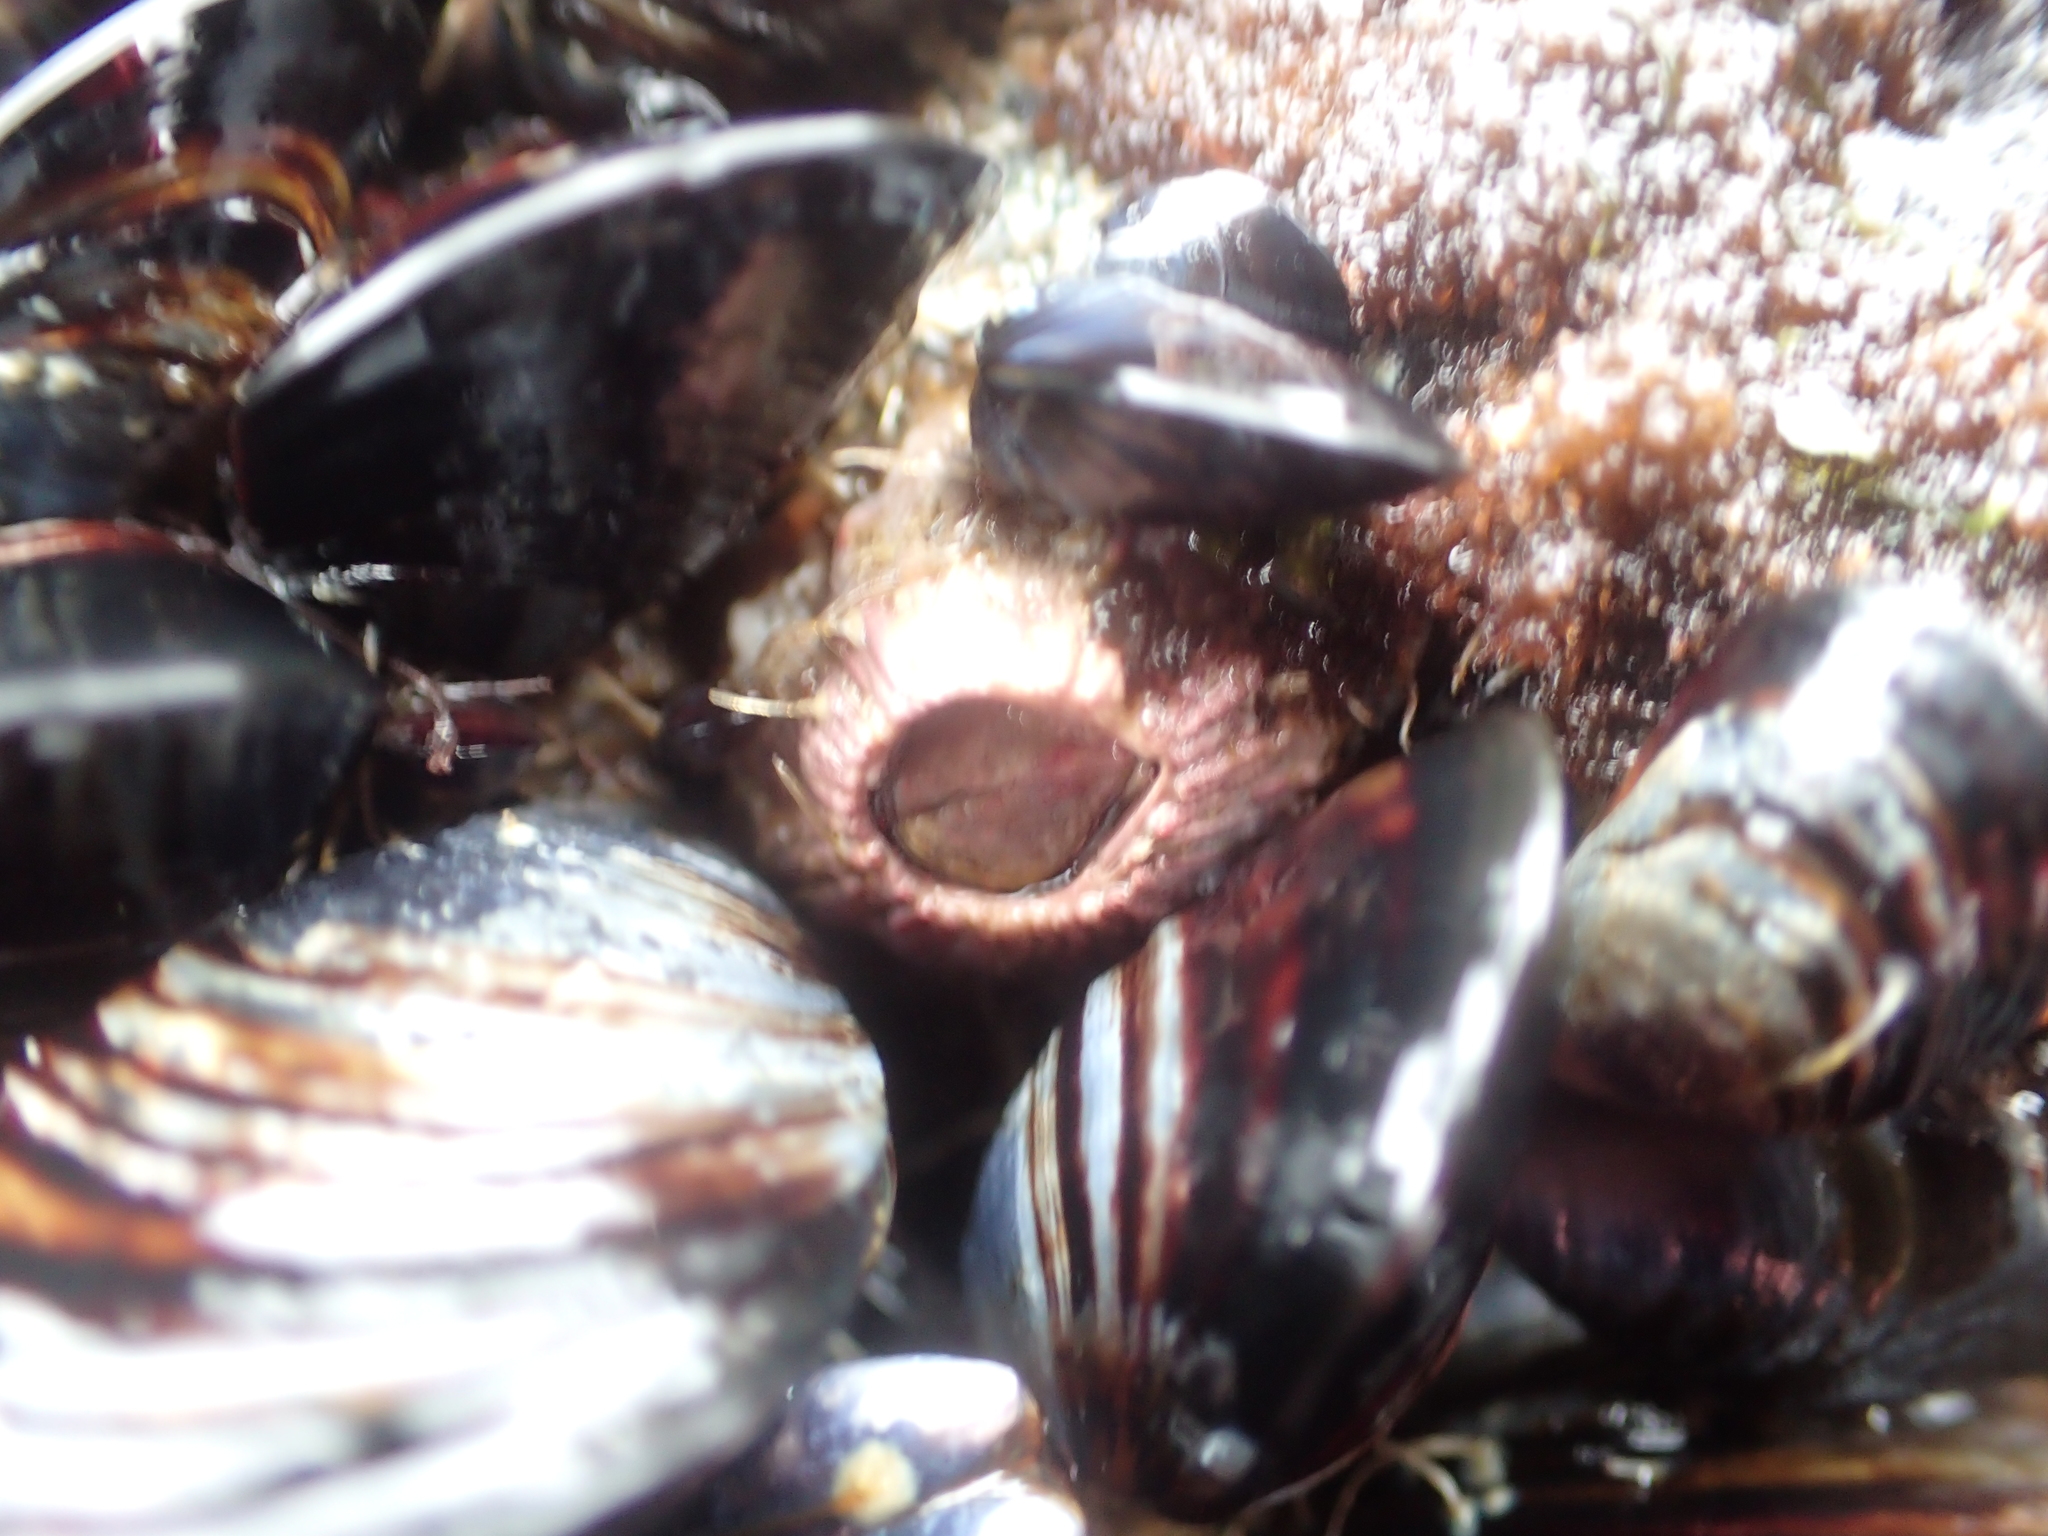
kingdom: Animalia
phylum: Arthropoda
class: Maxillopoda
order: Sessilia
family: Tetraclitidae
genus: Tetraclita
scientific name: Tetraclita rubescens
